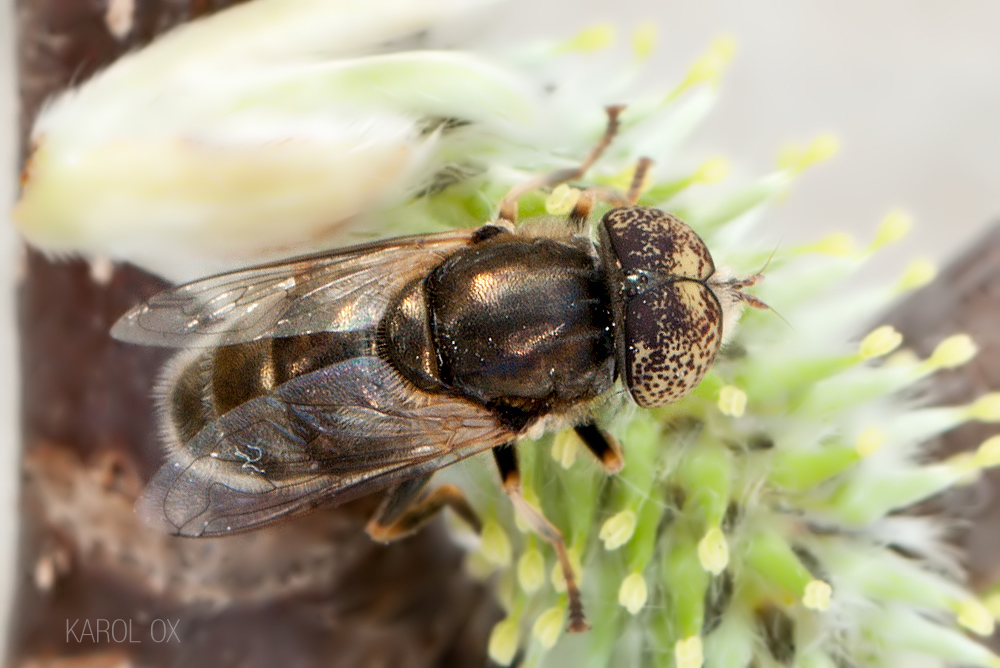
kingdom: Animalia
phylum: Arthropoda
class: Insecta
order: Diptera
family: Syrphidae
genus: Eristalinus
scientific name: Eristalinus aeneus
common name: Syrphid fly
